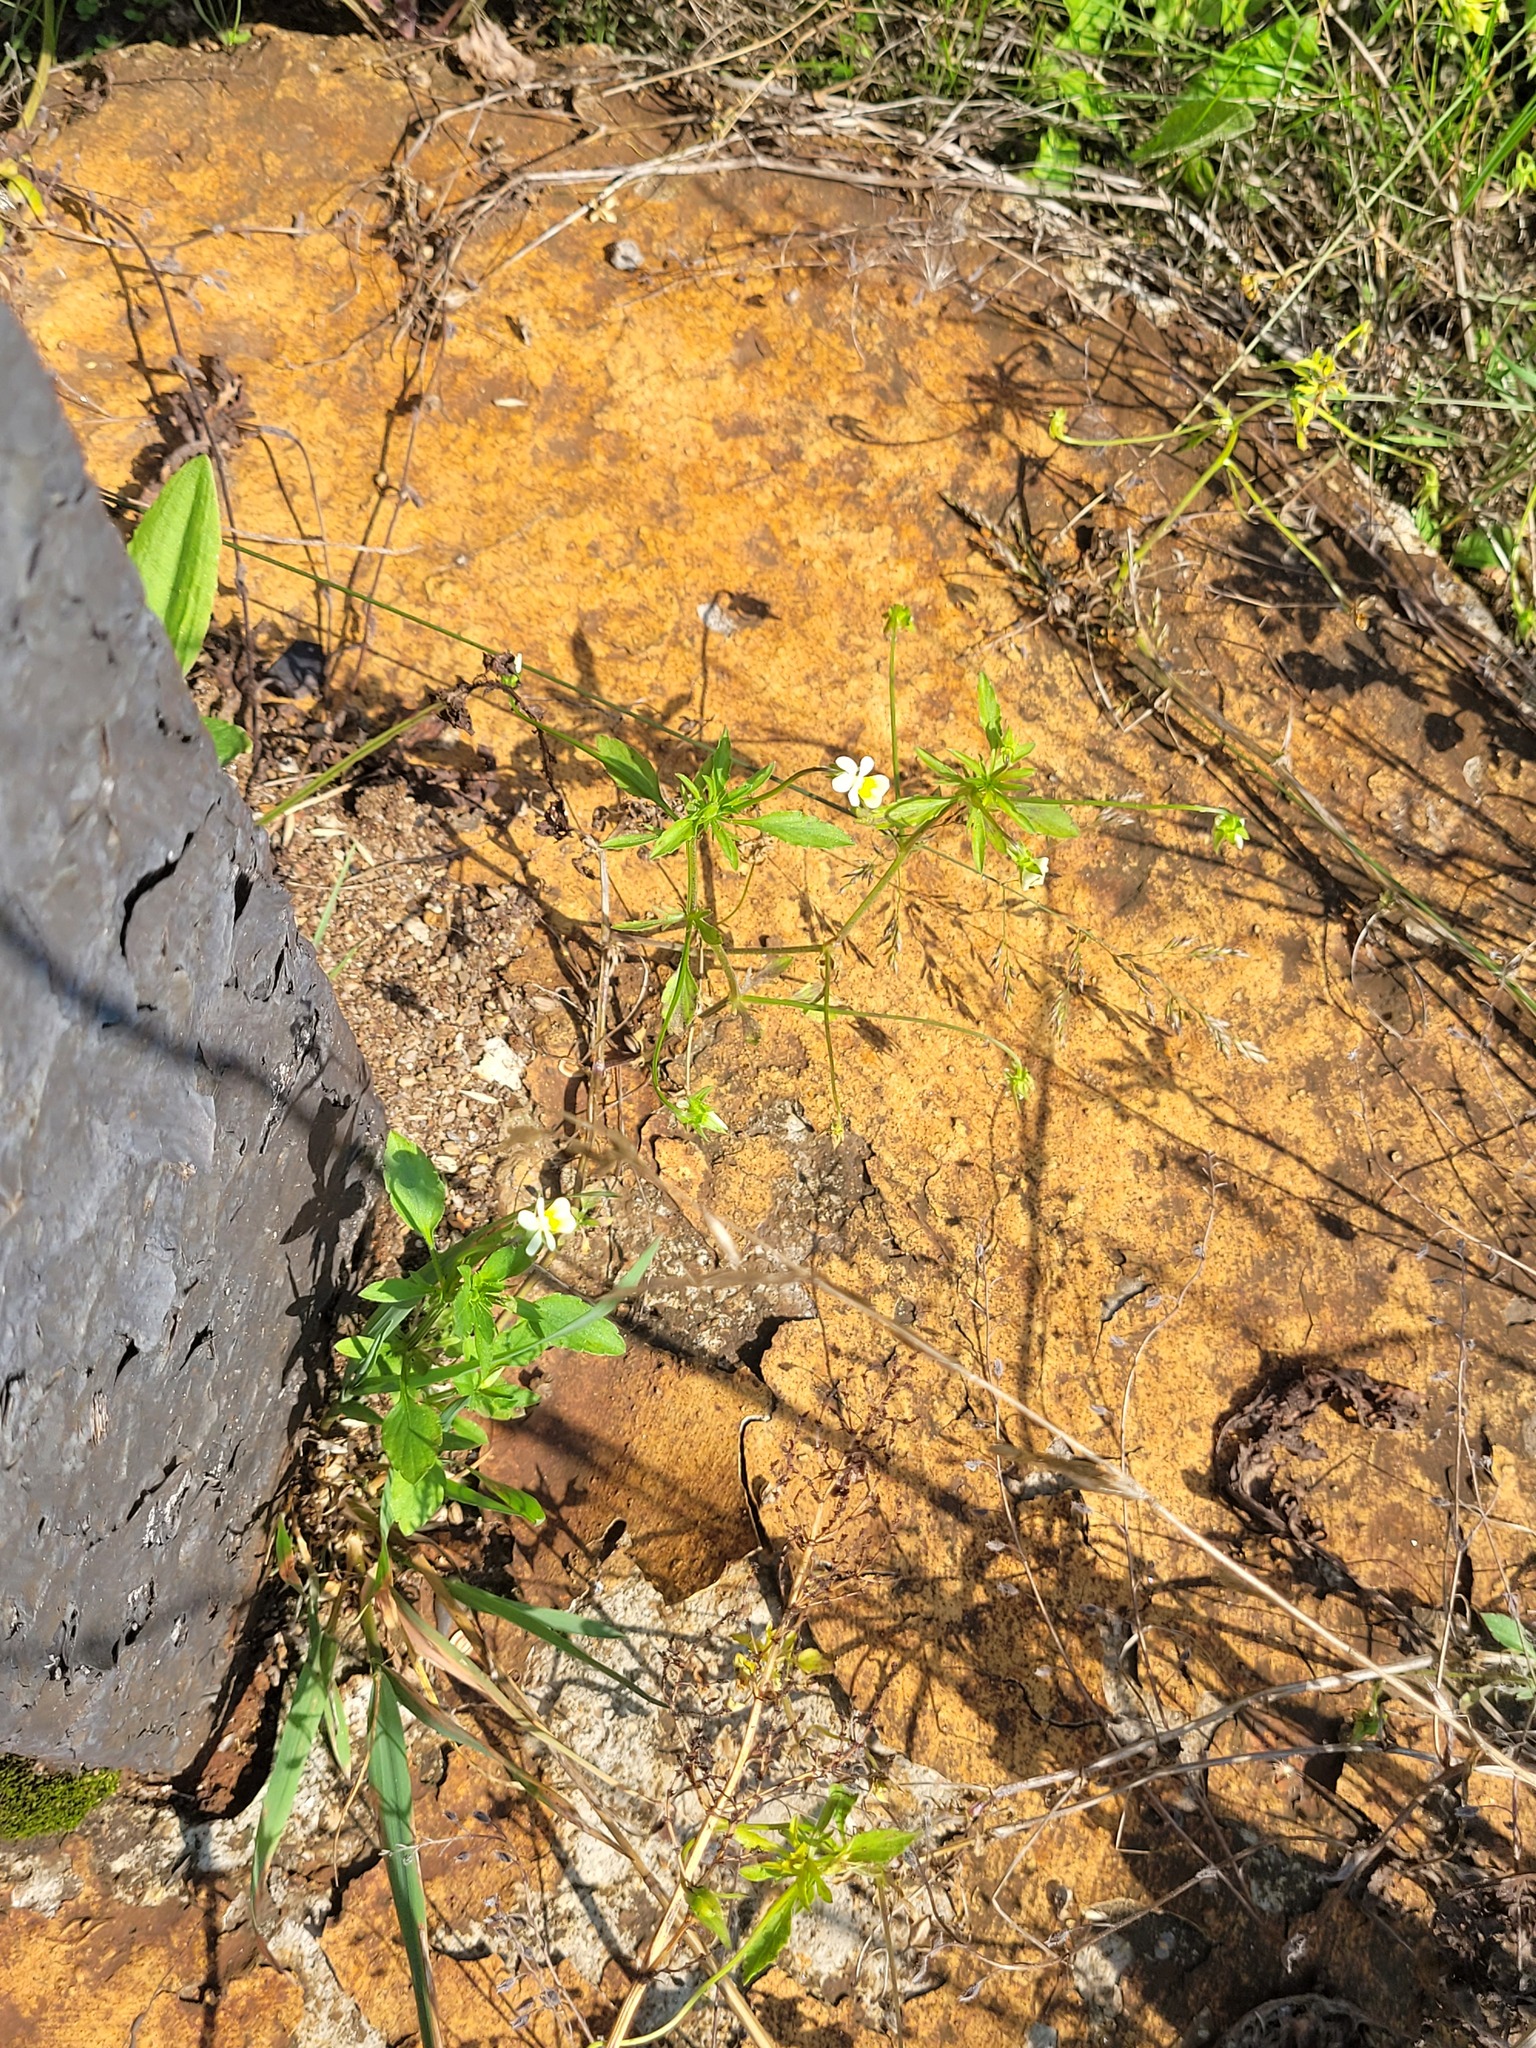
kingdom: Plantae
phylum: Tracheophyta
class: Magnoliopsida
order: Malpighiales
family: Violaceae
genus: Viola
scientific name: Viola arvensis
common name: Field pansy
